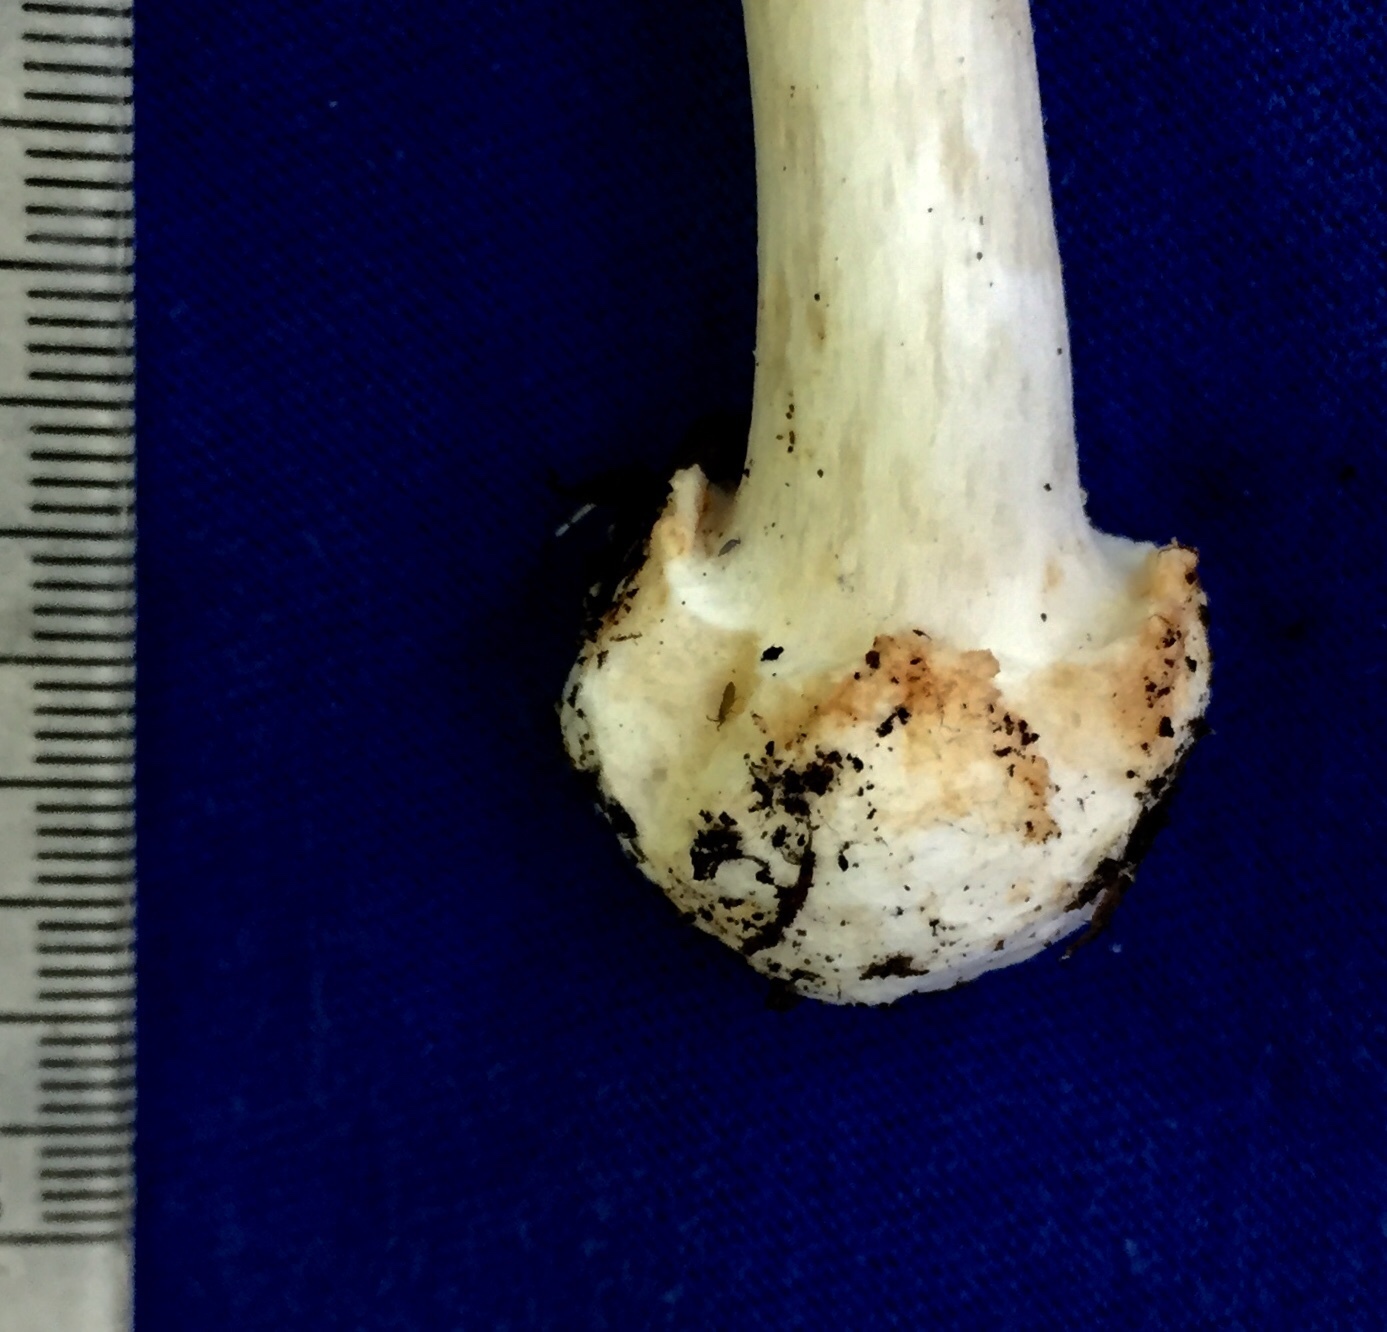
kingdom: Fungi
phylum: Basidiomycota
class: Agaricomycetes
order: Agaricales
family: Amanitaceae
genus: Amanita
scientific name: Amanita brunnescens
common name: Brown american star-footed amanita
